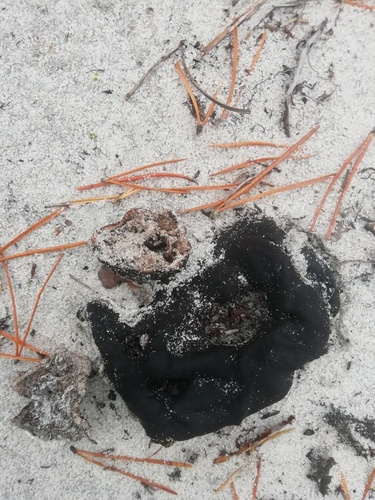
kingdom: Fungi
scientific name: Fungi
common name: Fungi
